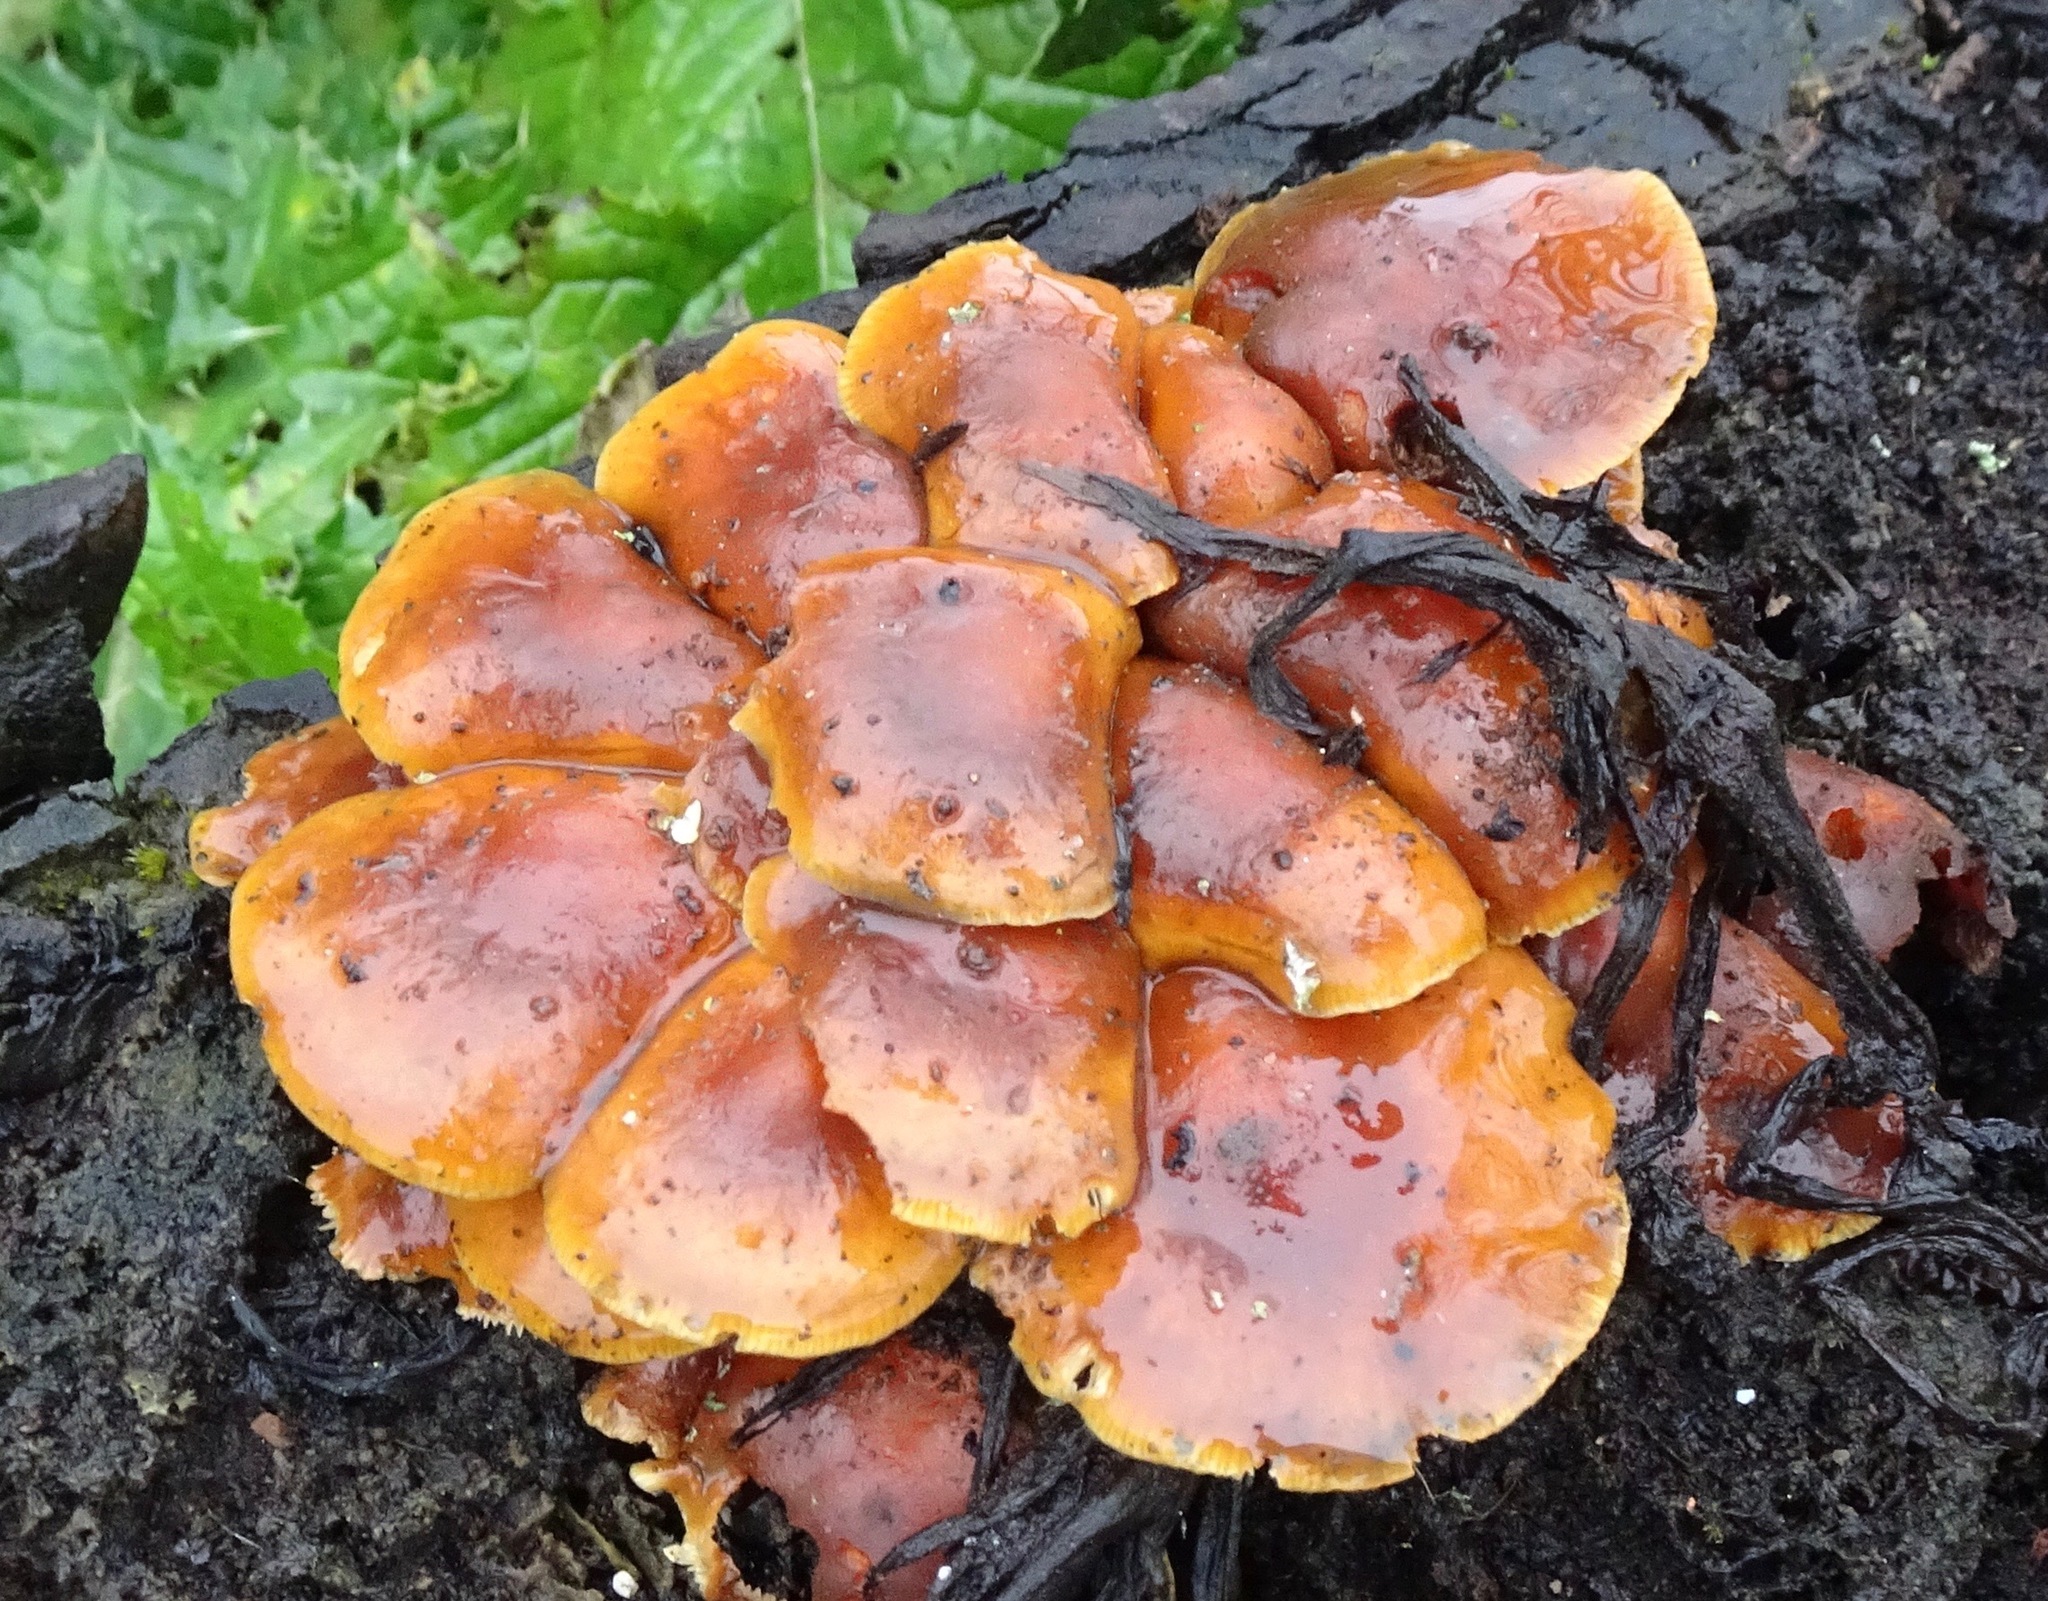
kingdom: Fungi
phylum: Basidiomycota
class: Agaricomycetes
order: Agaricales
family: Physalacriaceae
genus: Flammulina
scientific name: Flammulina
